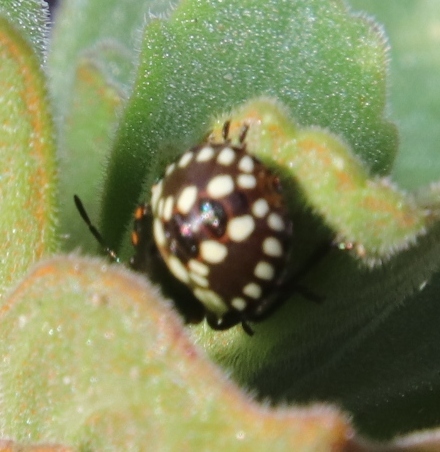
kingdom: Animalia
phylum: Arthropoda
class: Insecta
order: Hemiptera
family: Pentatomidae
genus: Nezara
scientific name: Nezara viridula
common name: Southern green stink bug
